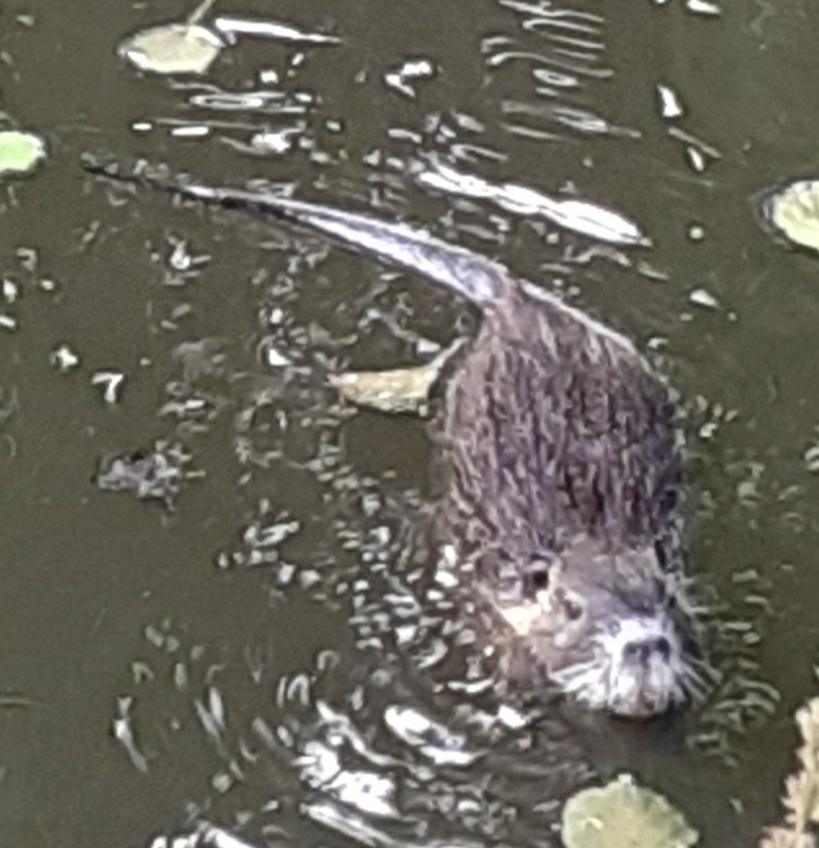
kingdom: Animalia
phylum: Chordata
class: Mammalia
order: Rodentia
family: Myocastoridae
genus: Myocastor
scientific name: Myocastor coypus
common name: Coypu
